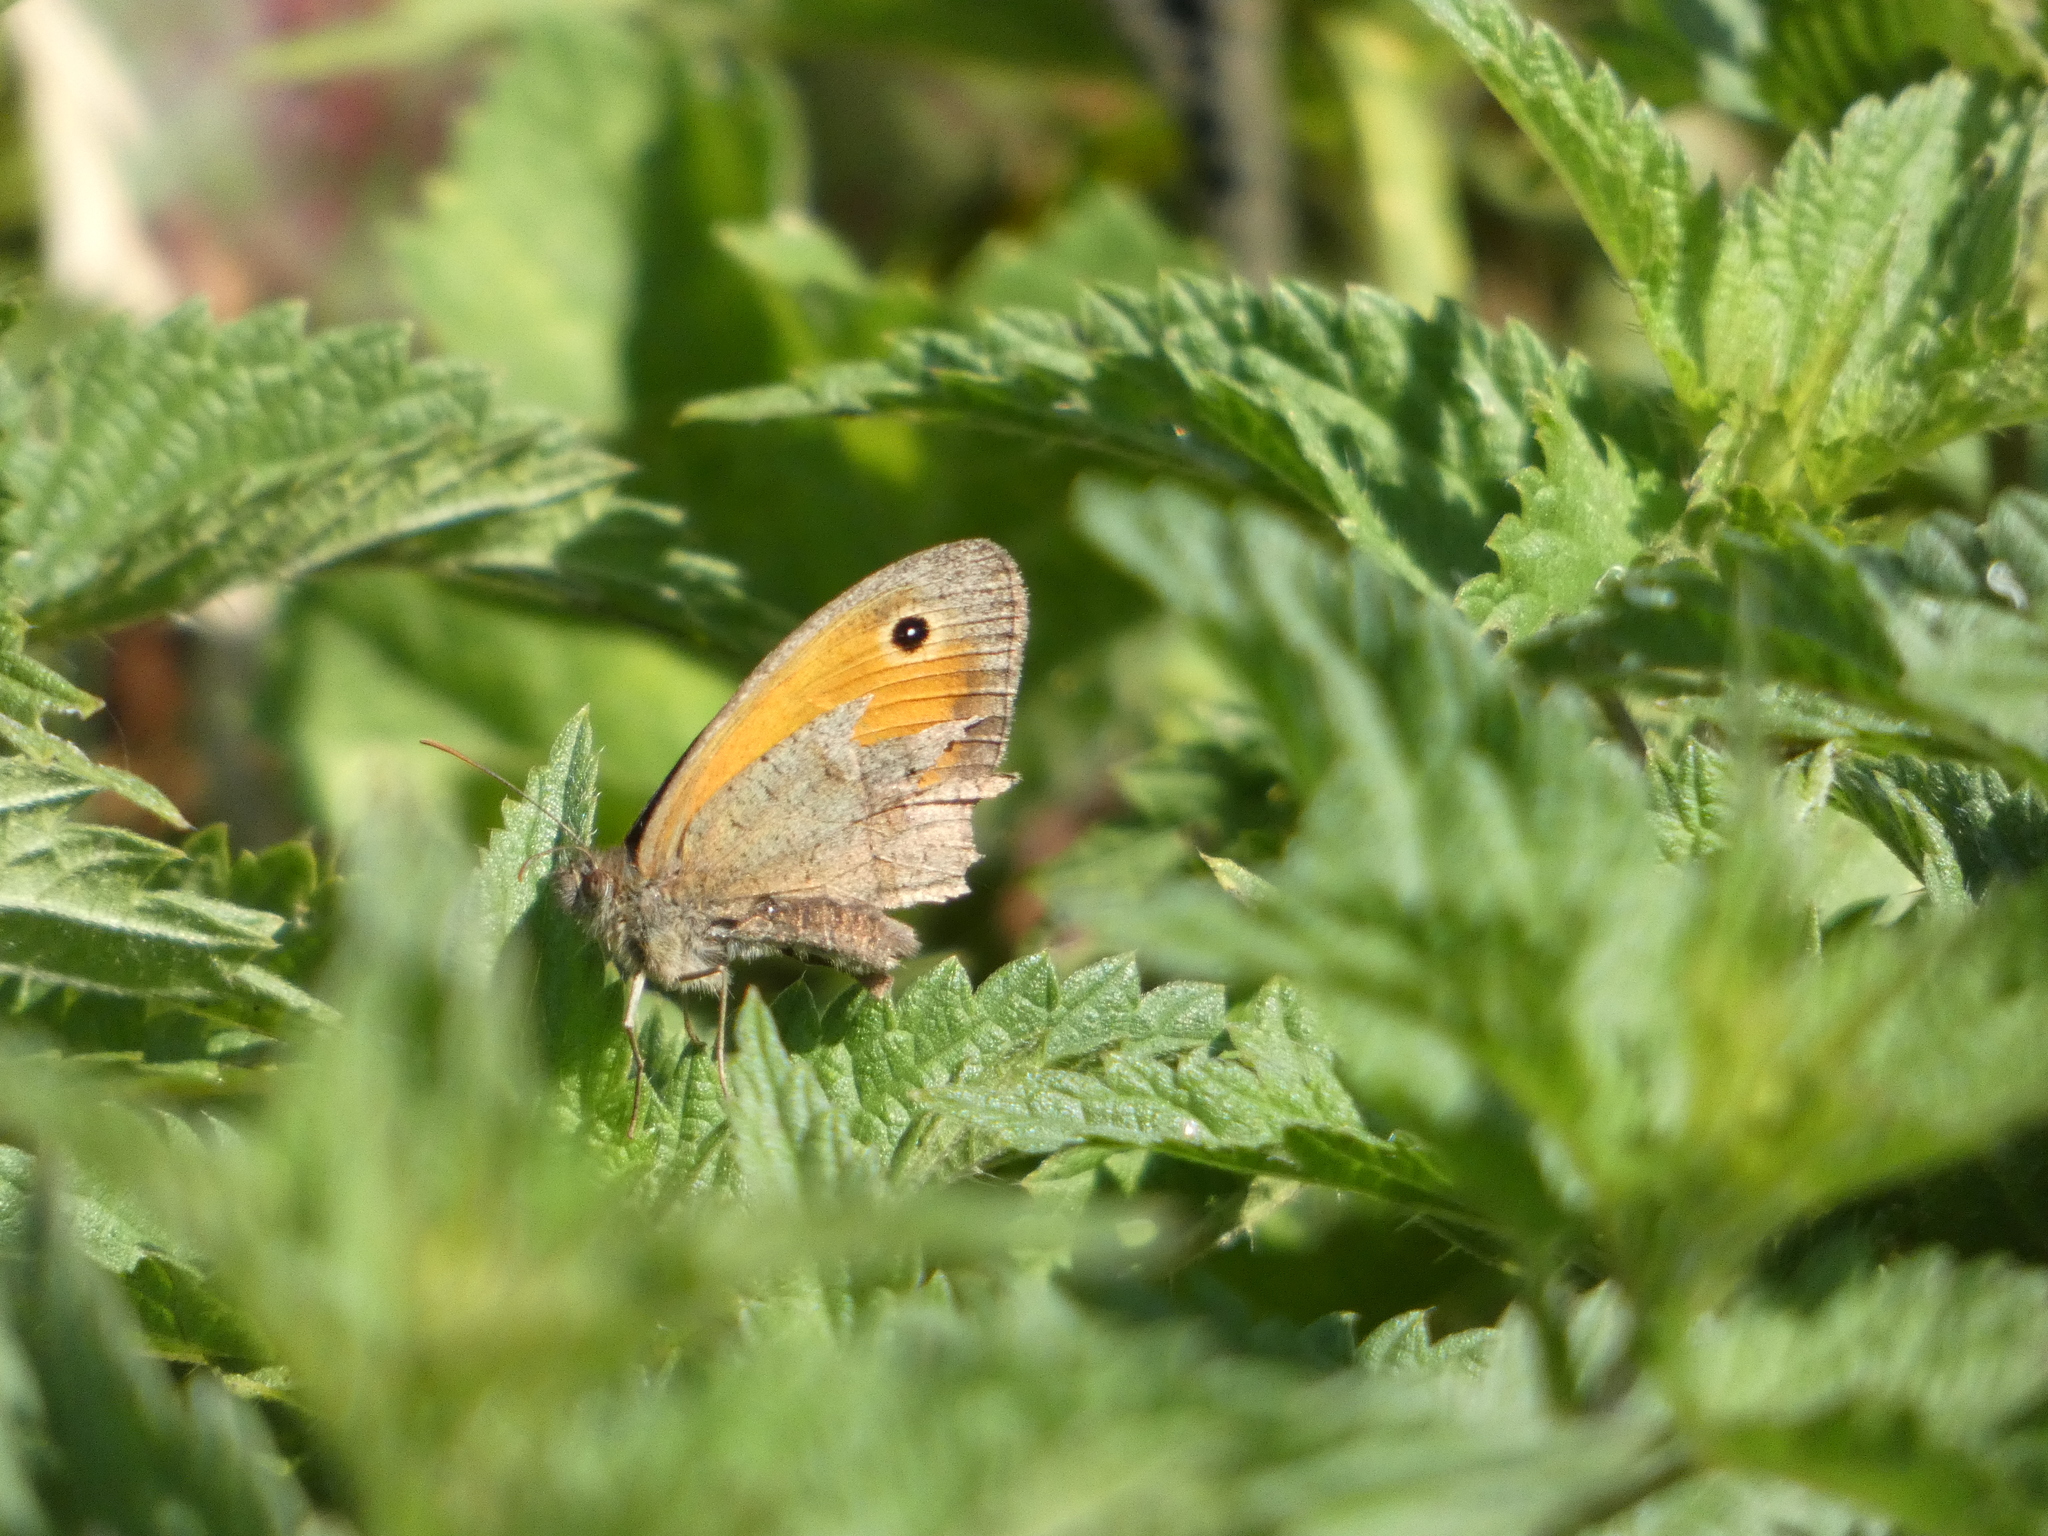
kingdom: Animalia
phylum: Arthropoda
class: Insecta
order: Lepidoptera
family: Nymphalidae
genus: Maniola
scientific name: Maniola jurtina
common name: Meadow brown
